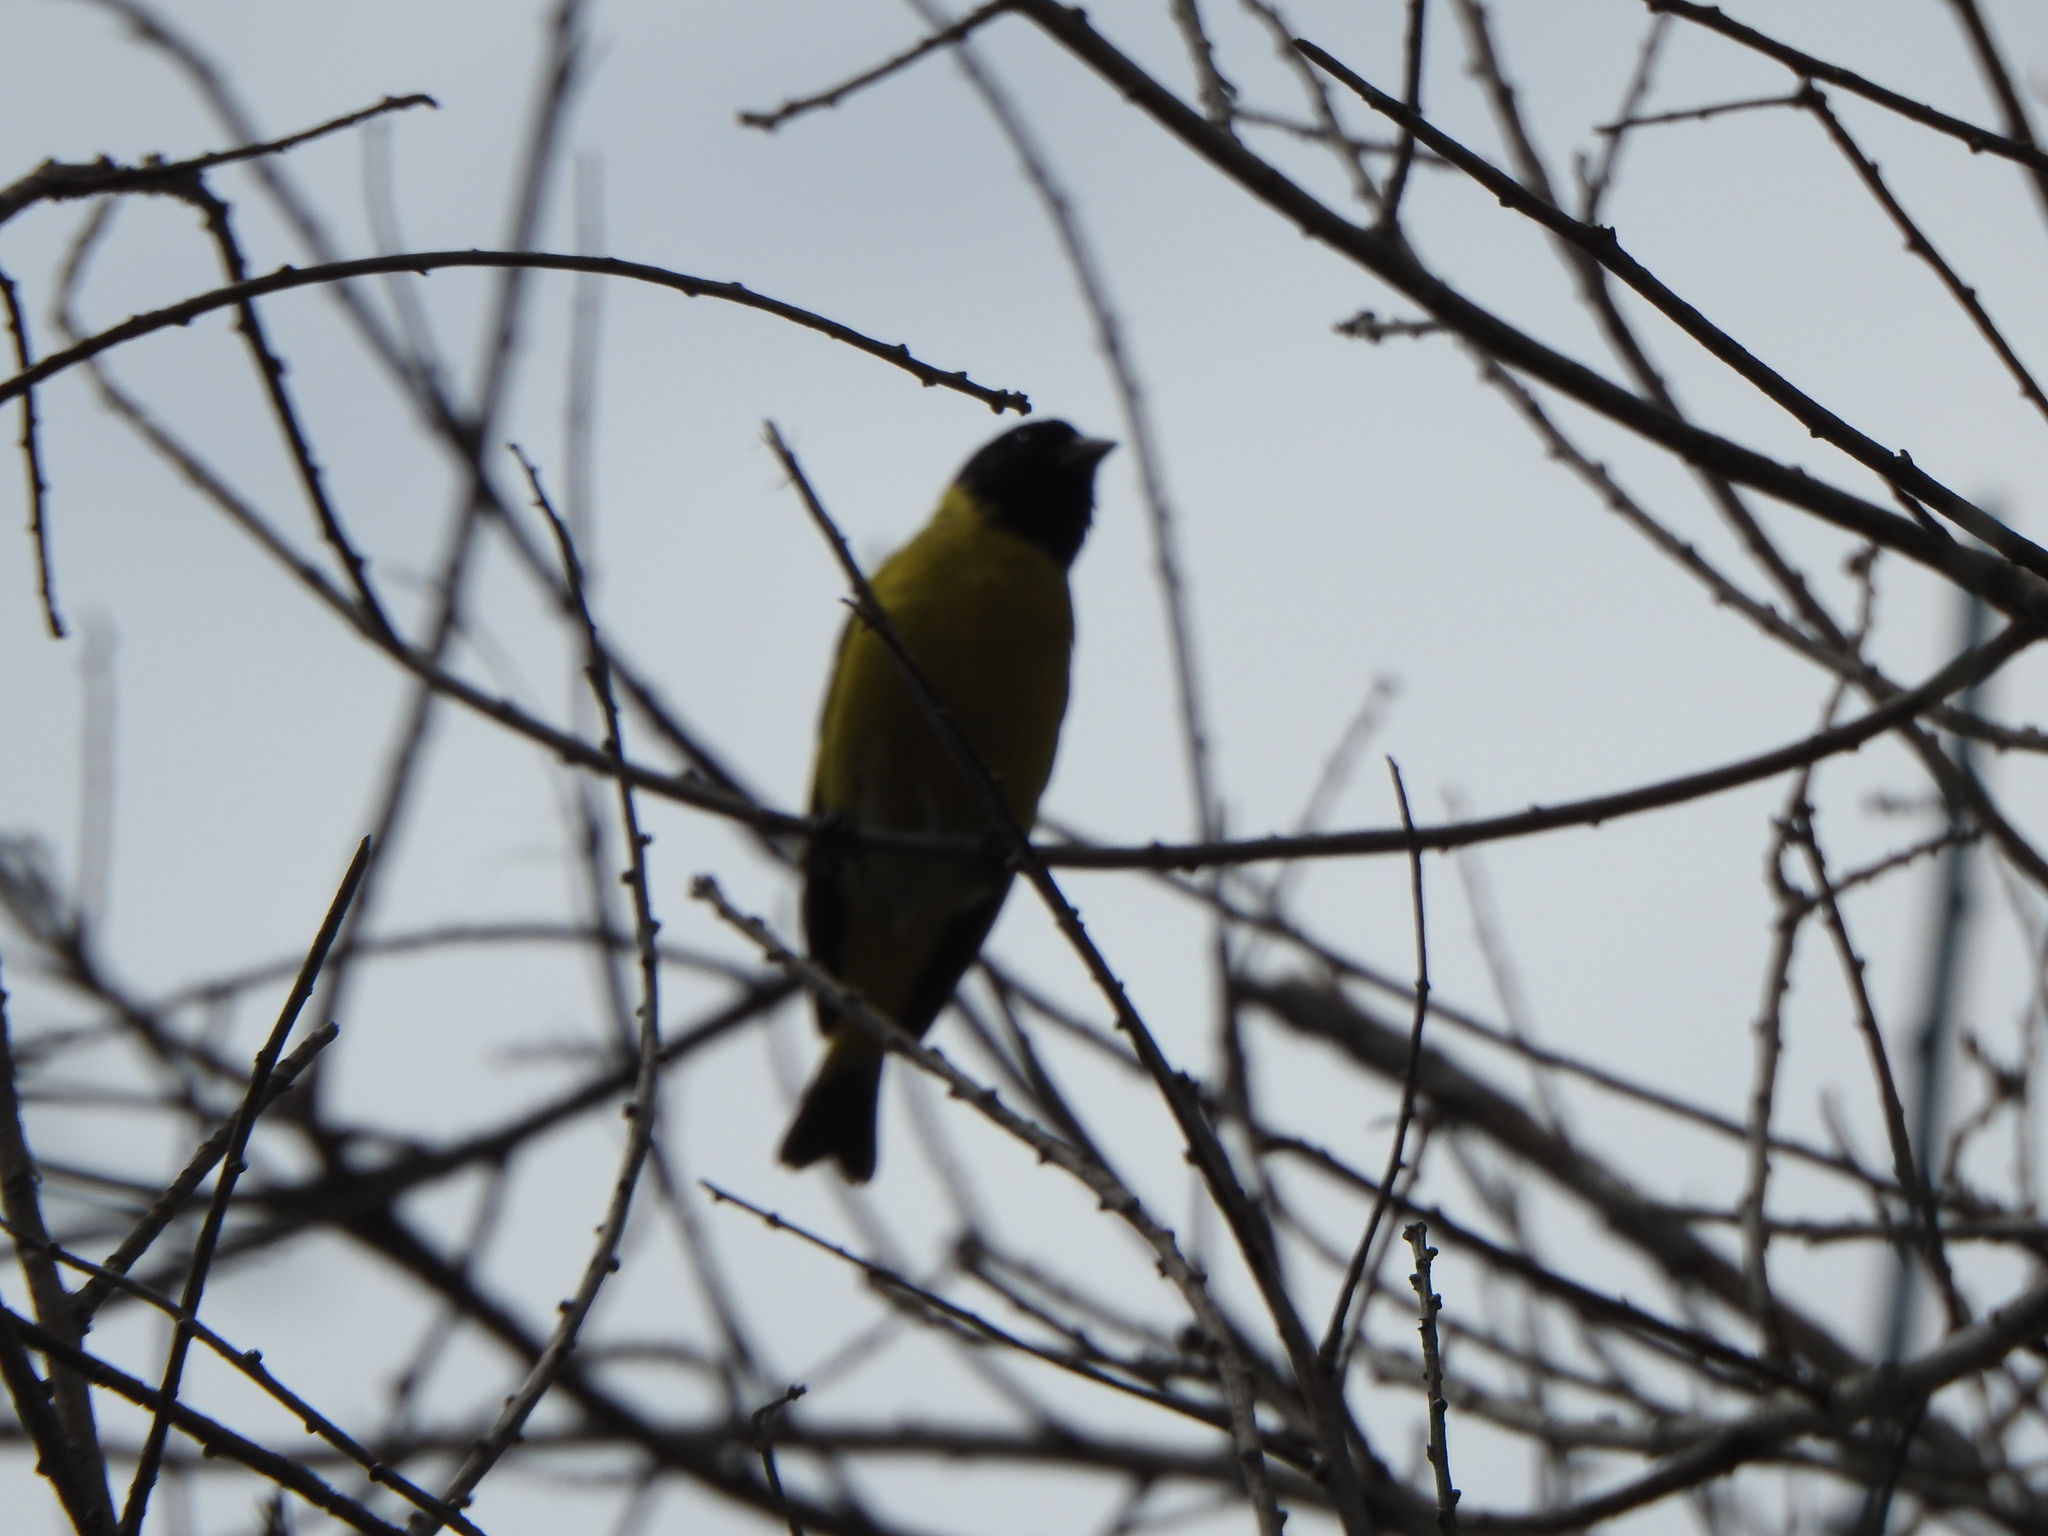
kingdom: Animalia
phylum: Chordata
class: Aves
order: Passeriformes
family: Fringillidae
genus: Spinus
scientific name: Spinus magellanicus
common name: Hooded siskin
